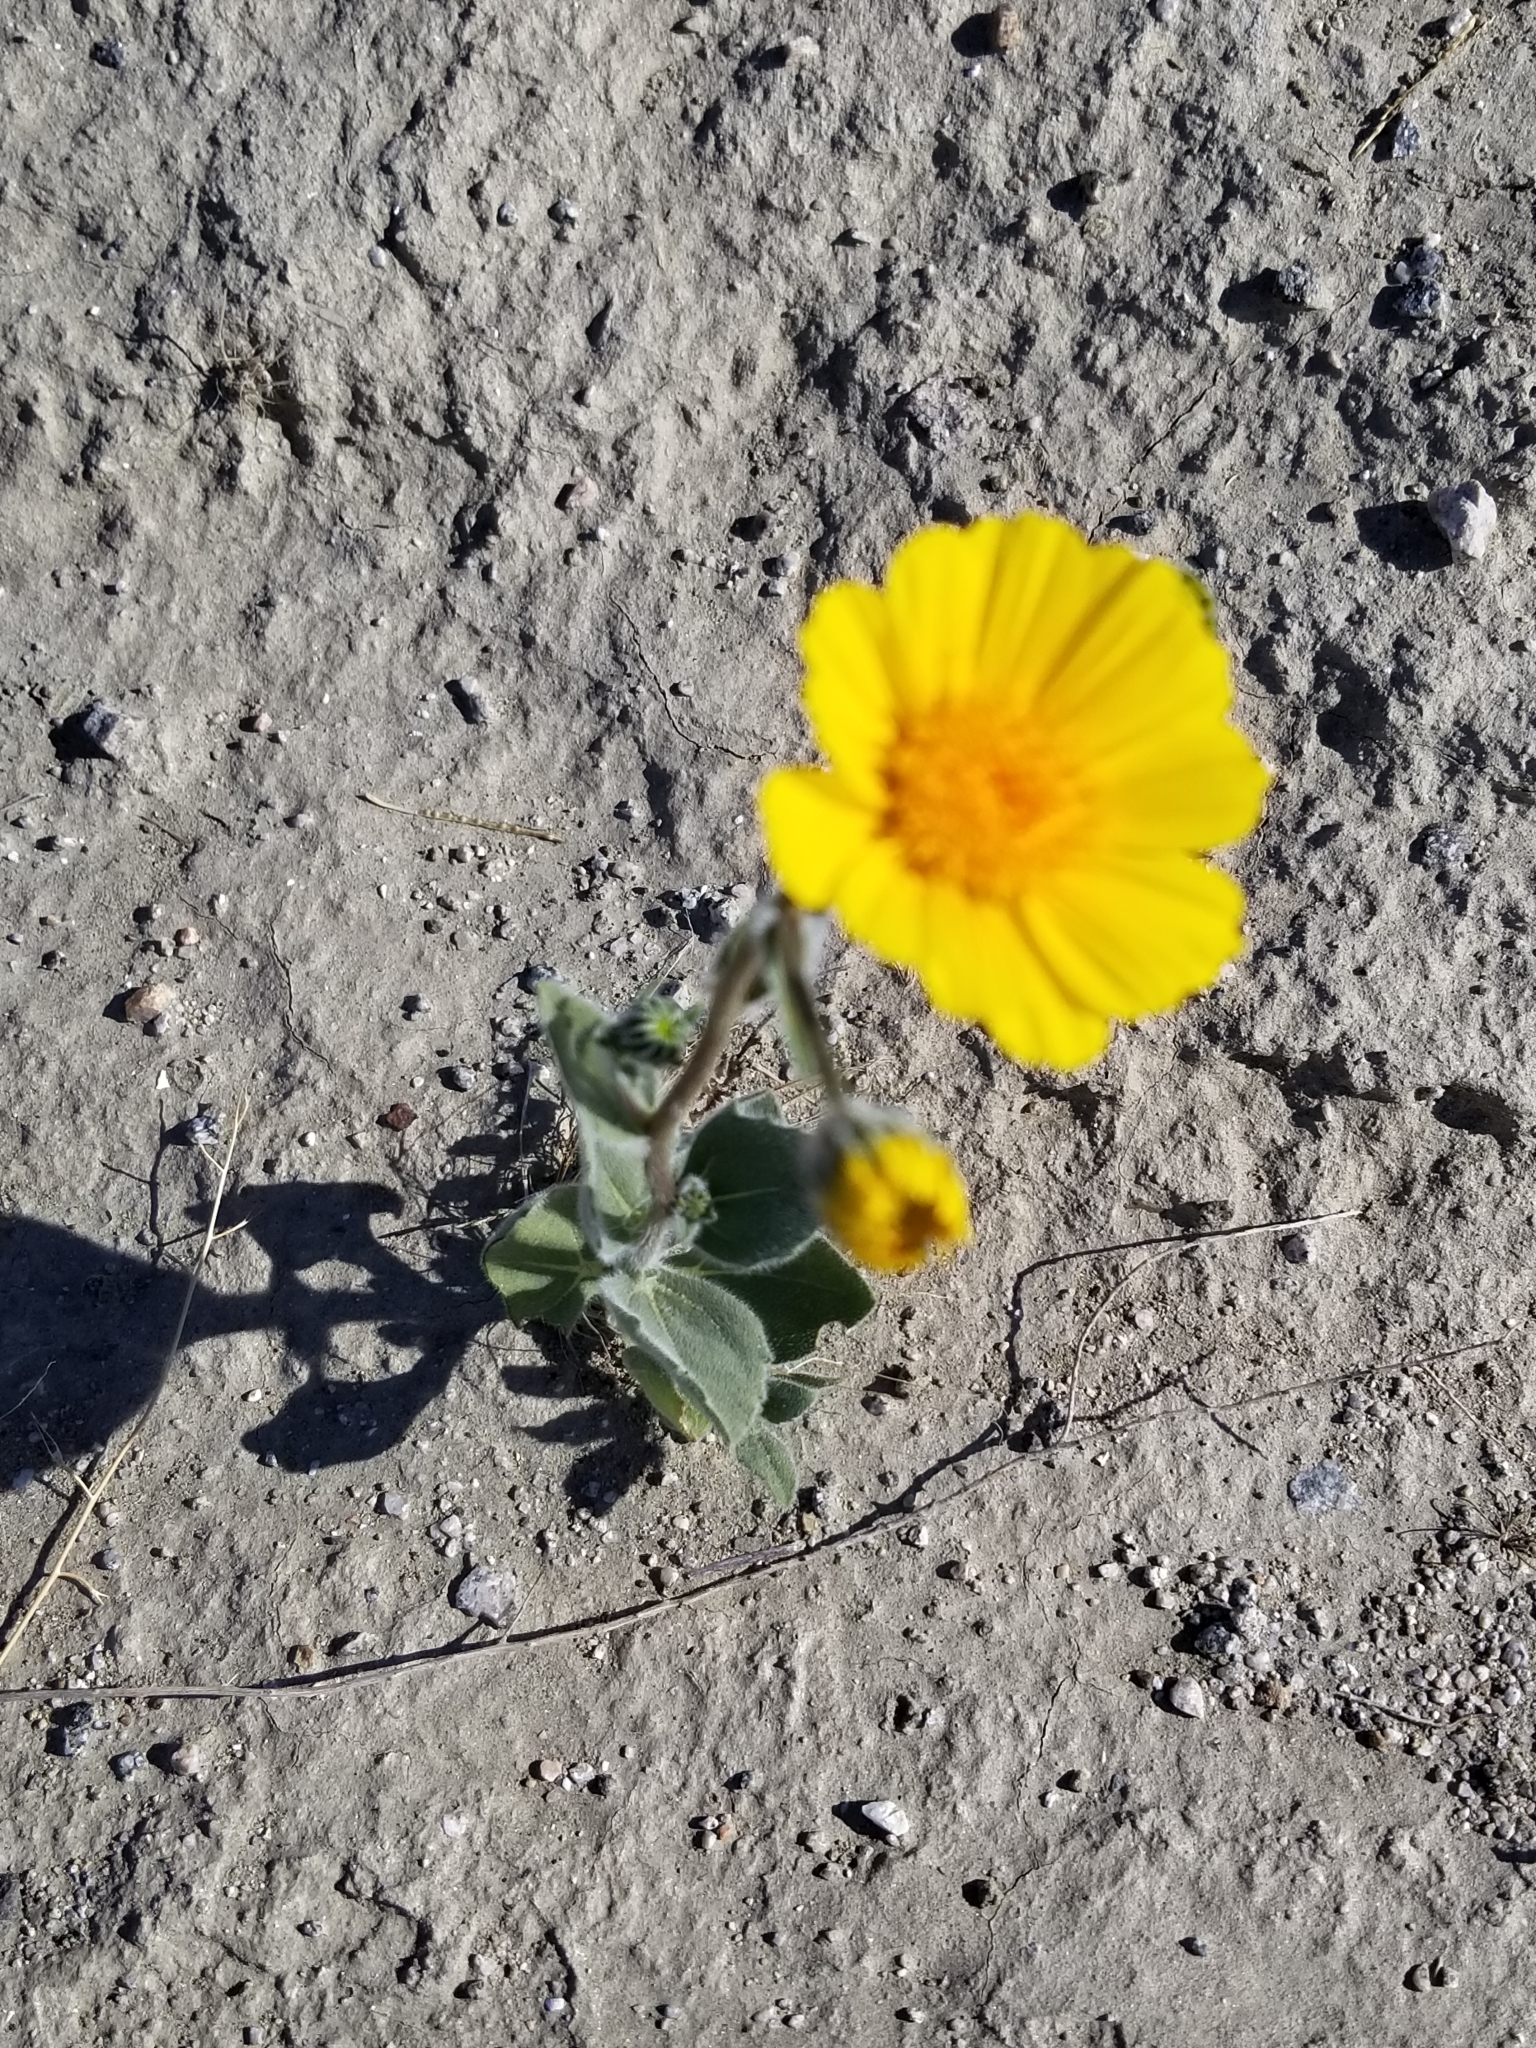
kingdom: Plantae
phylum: Tracheophyta
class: Magnoliopsida
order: Asterales
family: Asteraceae
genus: Geraea
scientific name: Geraea canescens
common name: Desert-gold
